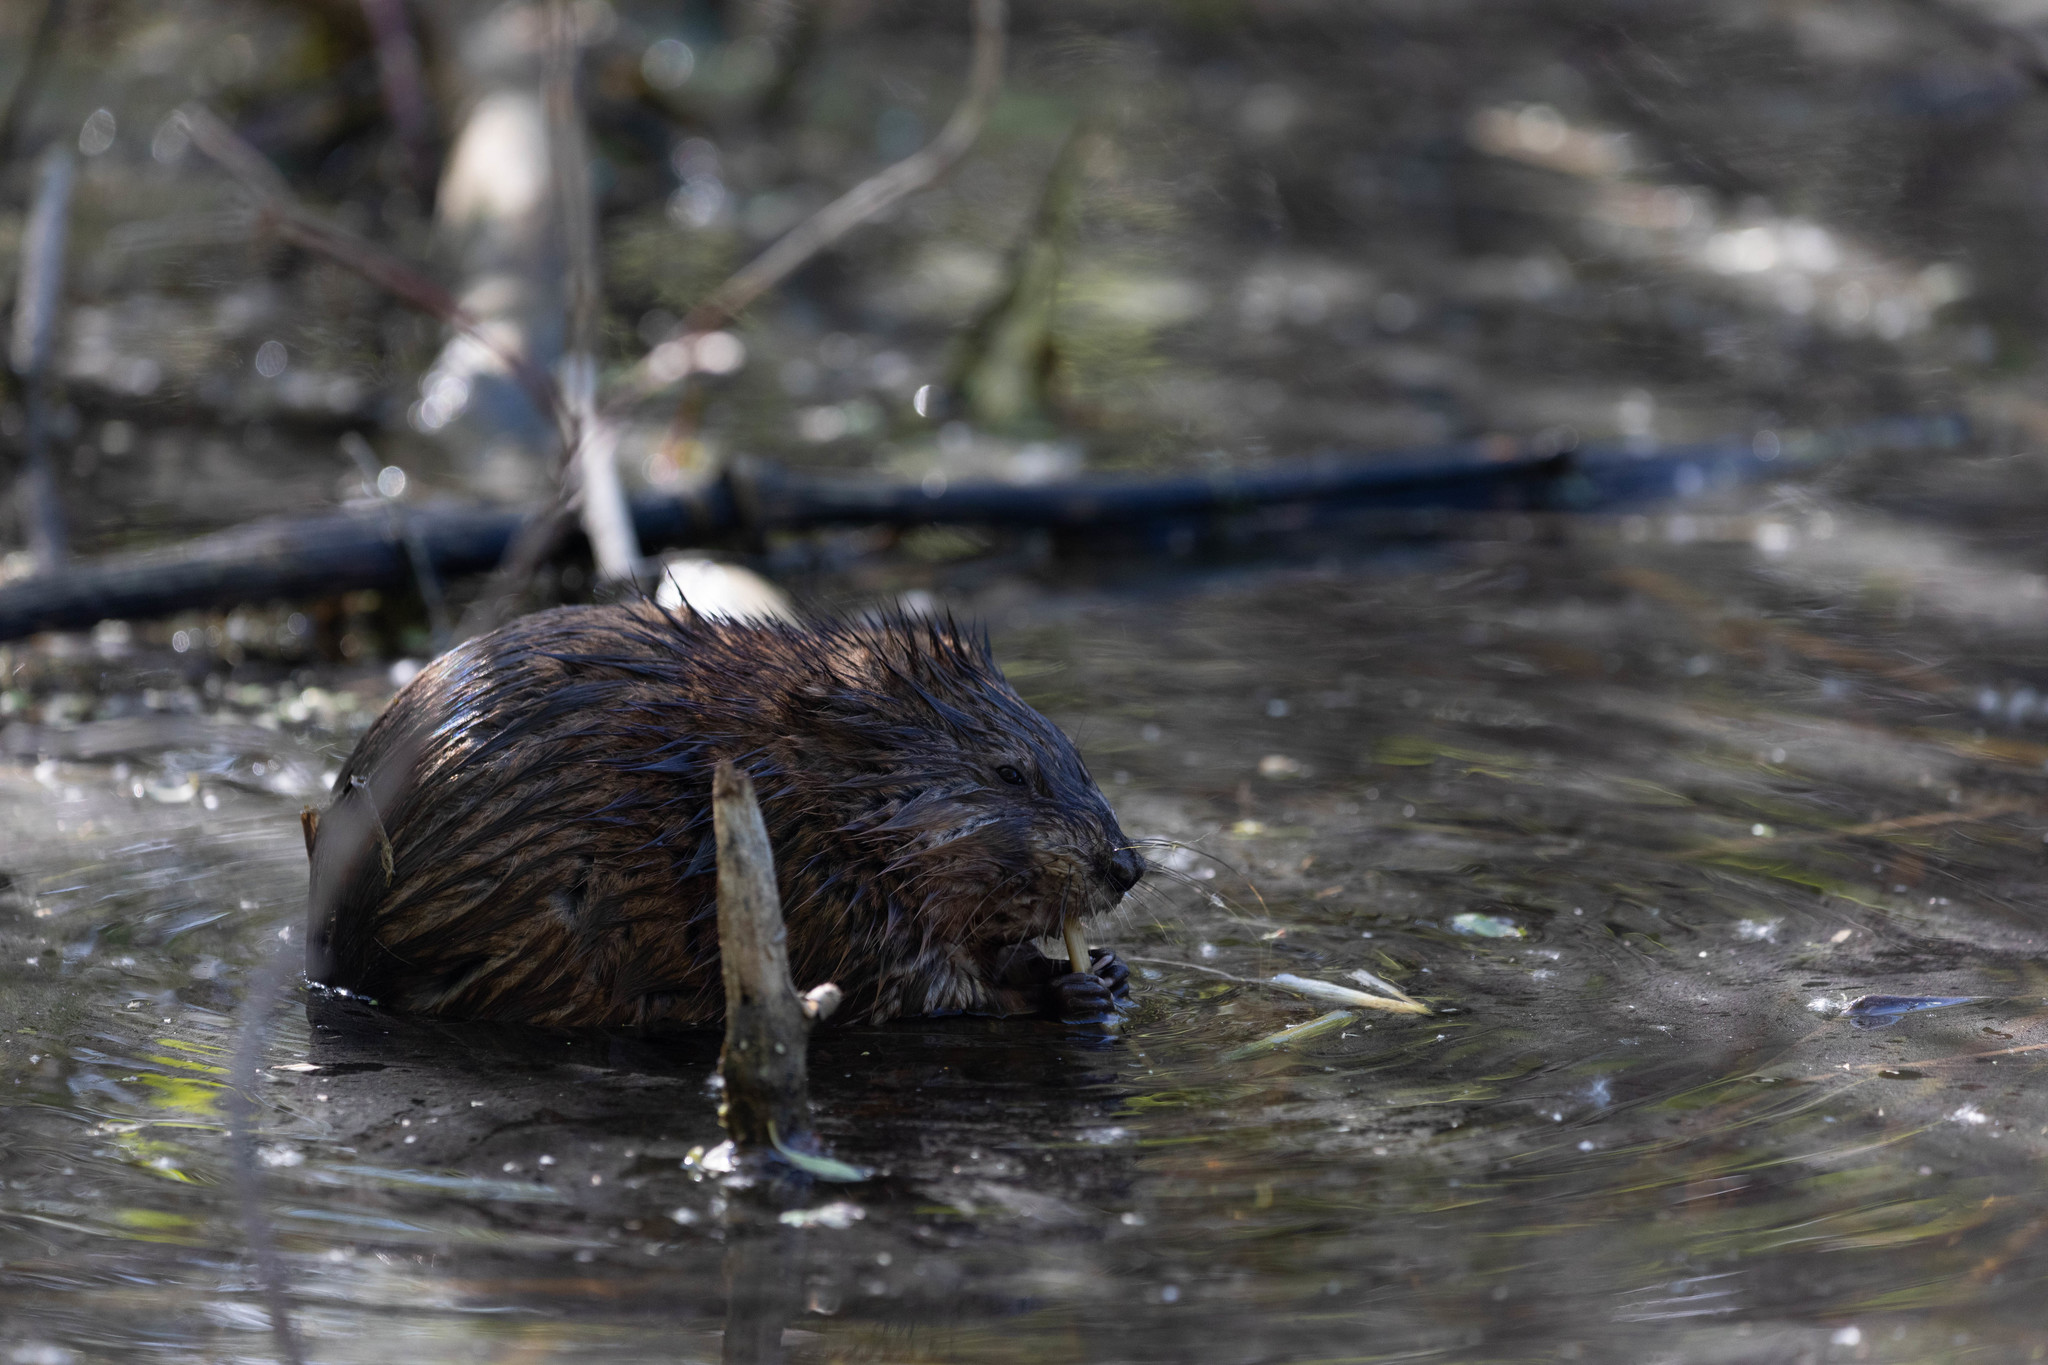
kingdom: Animalia
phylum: Chordata
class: Mammalia
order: Rodentia
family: Cricetidae
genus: Ondatra
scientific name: Ondatra zibethicus
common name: Muskrat
